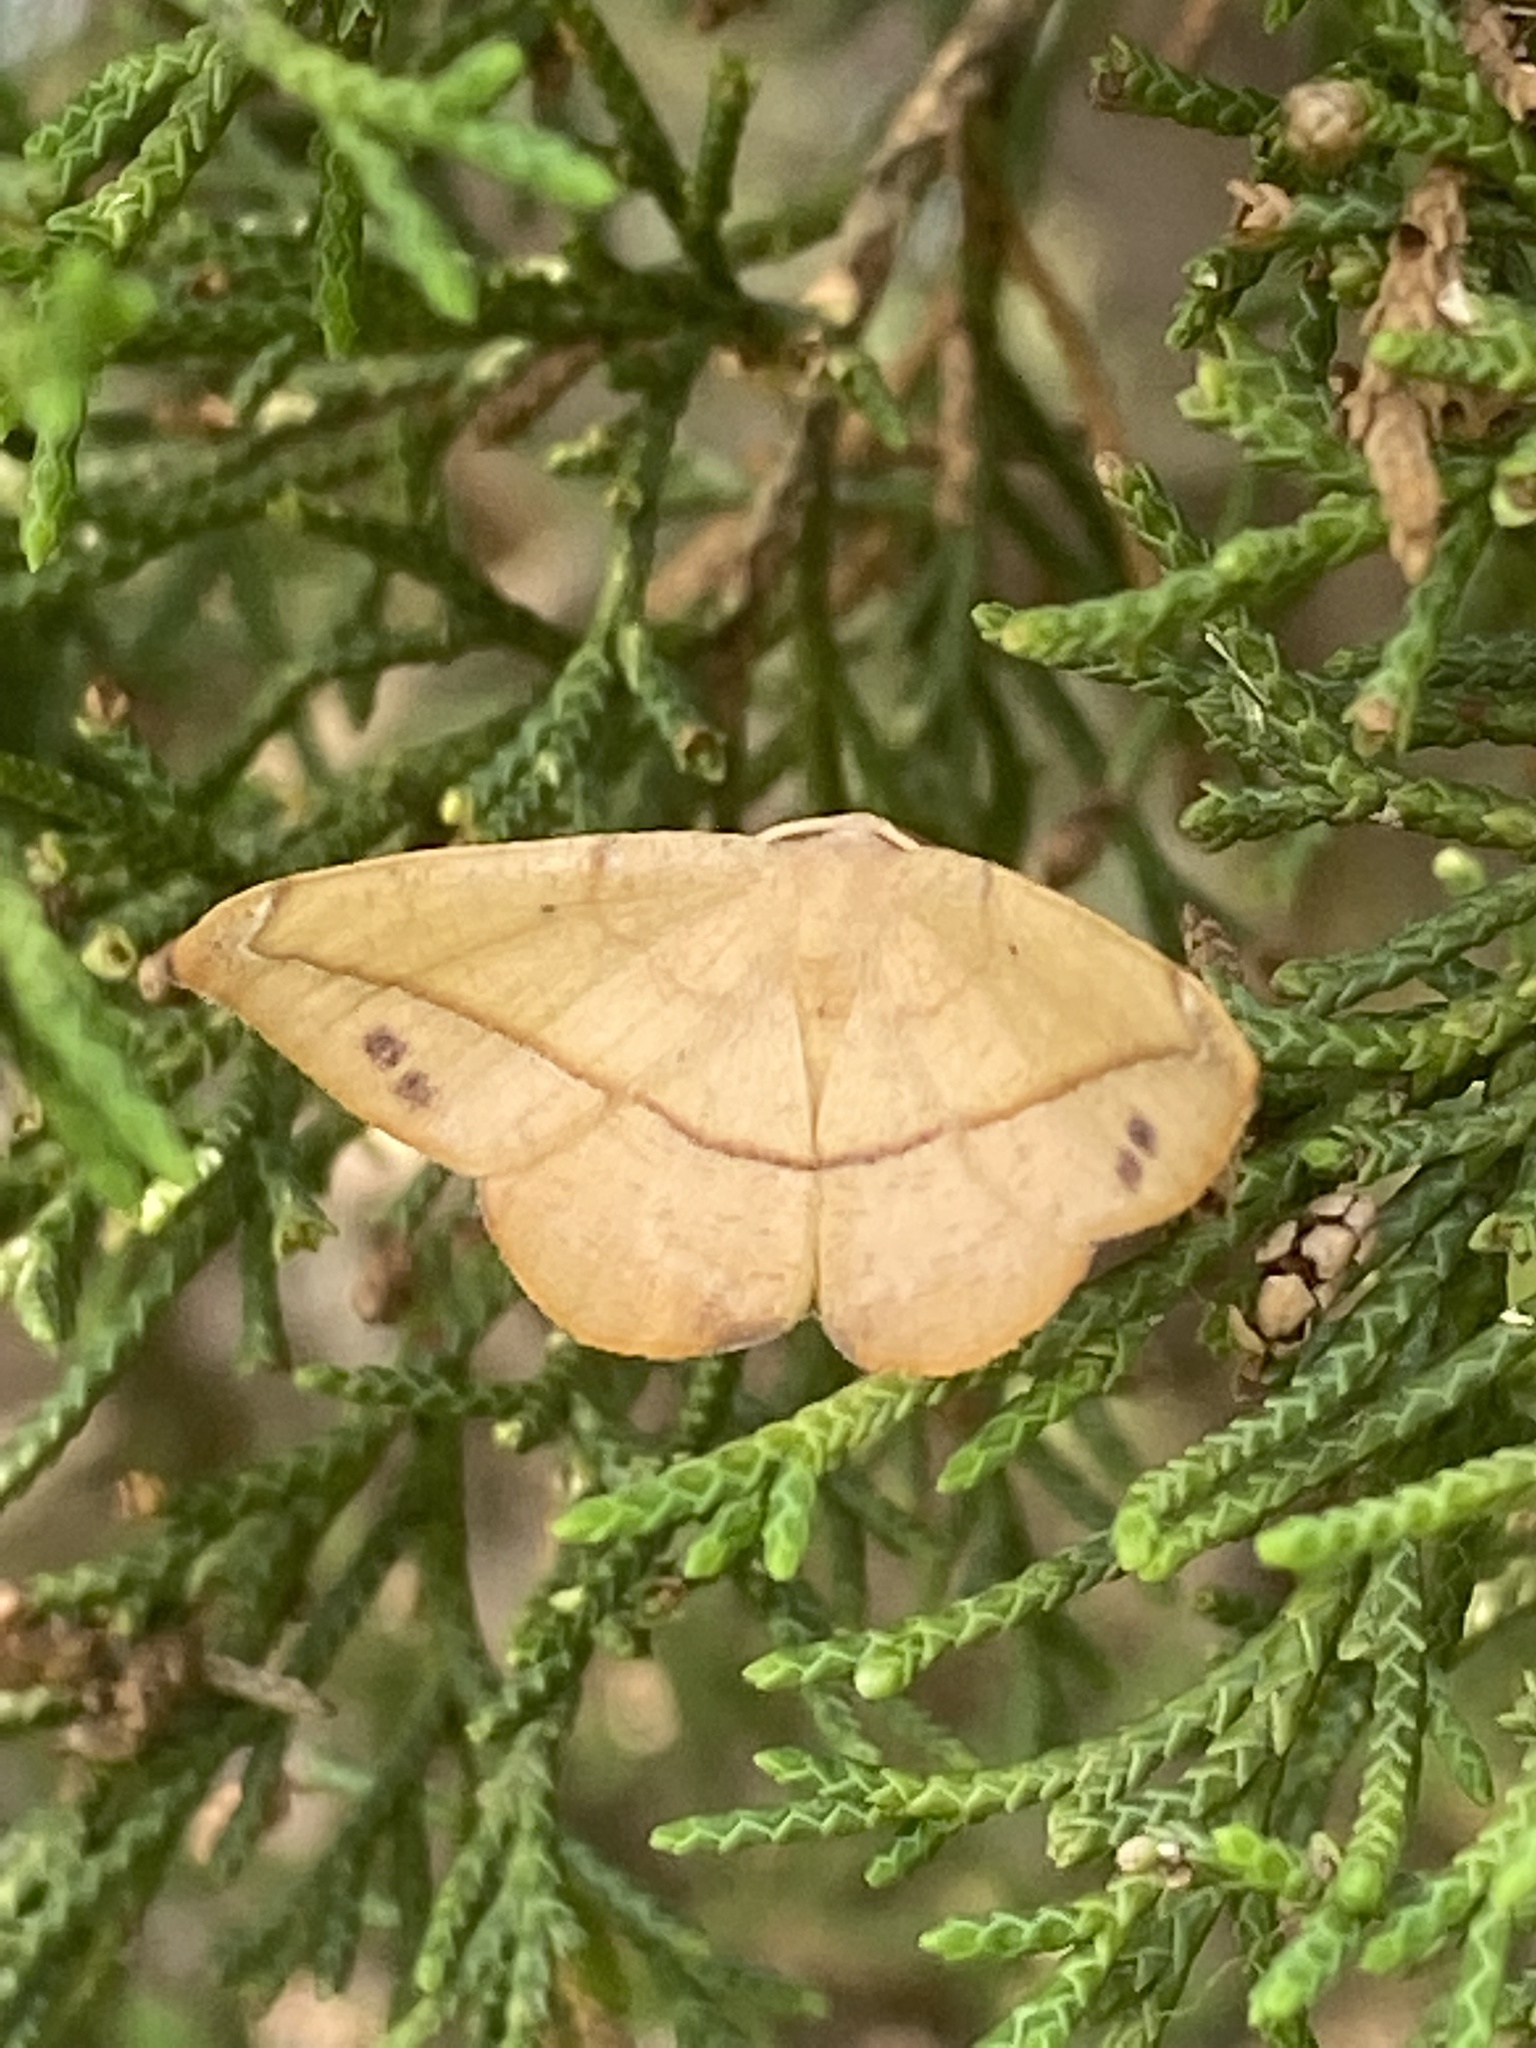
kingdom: Animalia
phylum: Arthropoda
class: Insecta
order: Lepidoptera
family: Geometridae
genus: Patalene
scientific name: Patalene olyzonaria
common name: Juniper geometer moth
